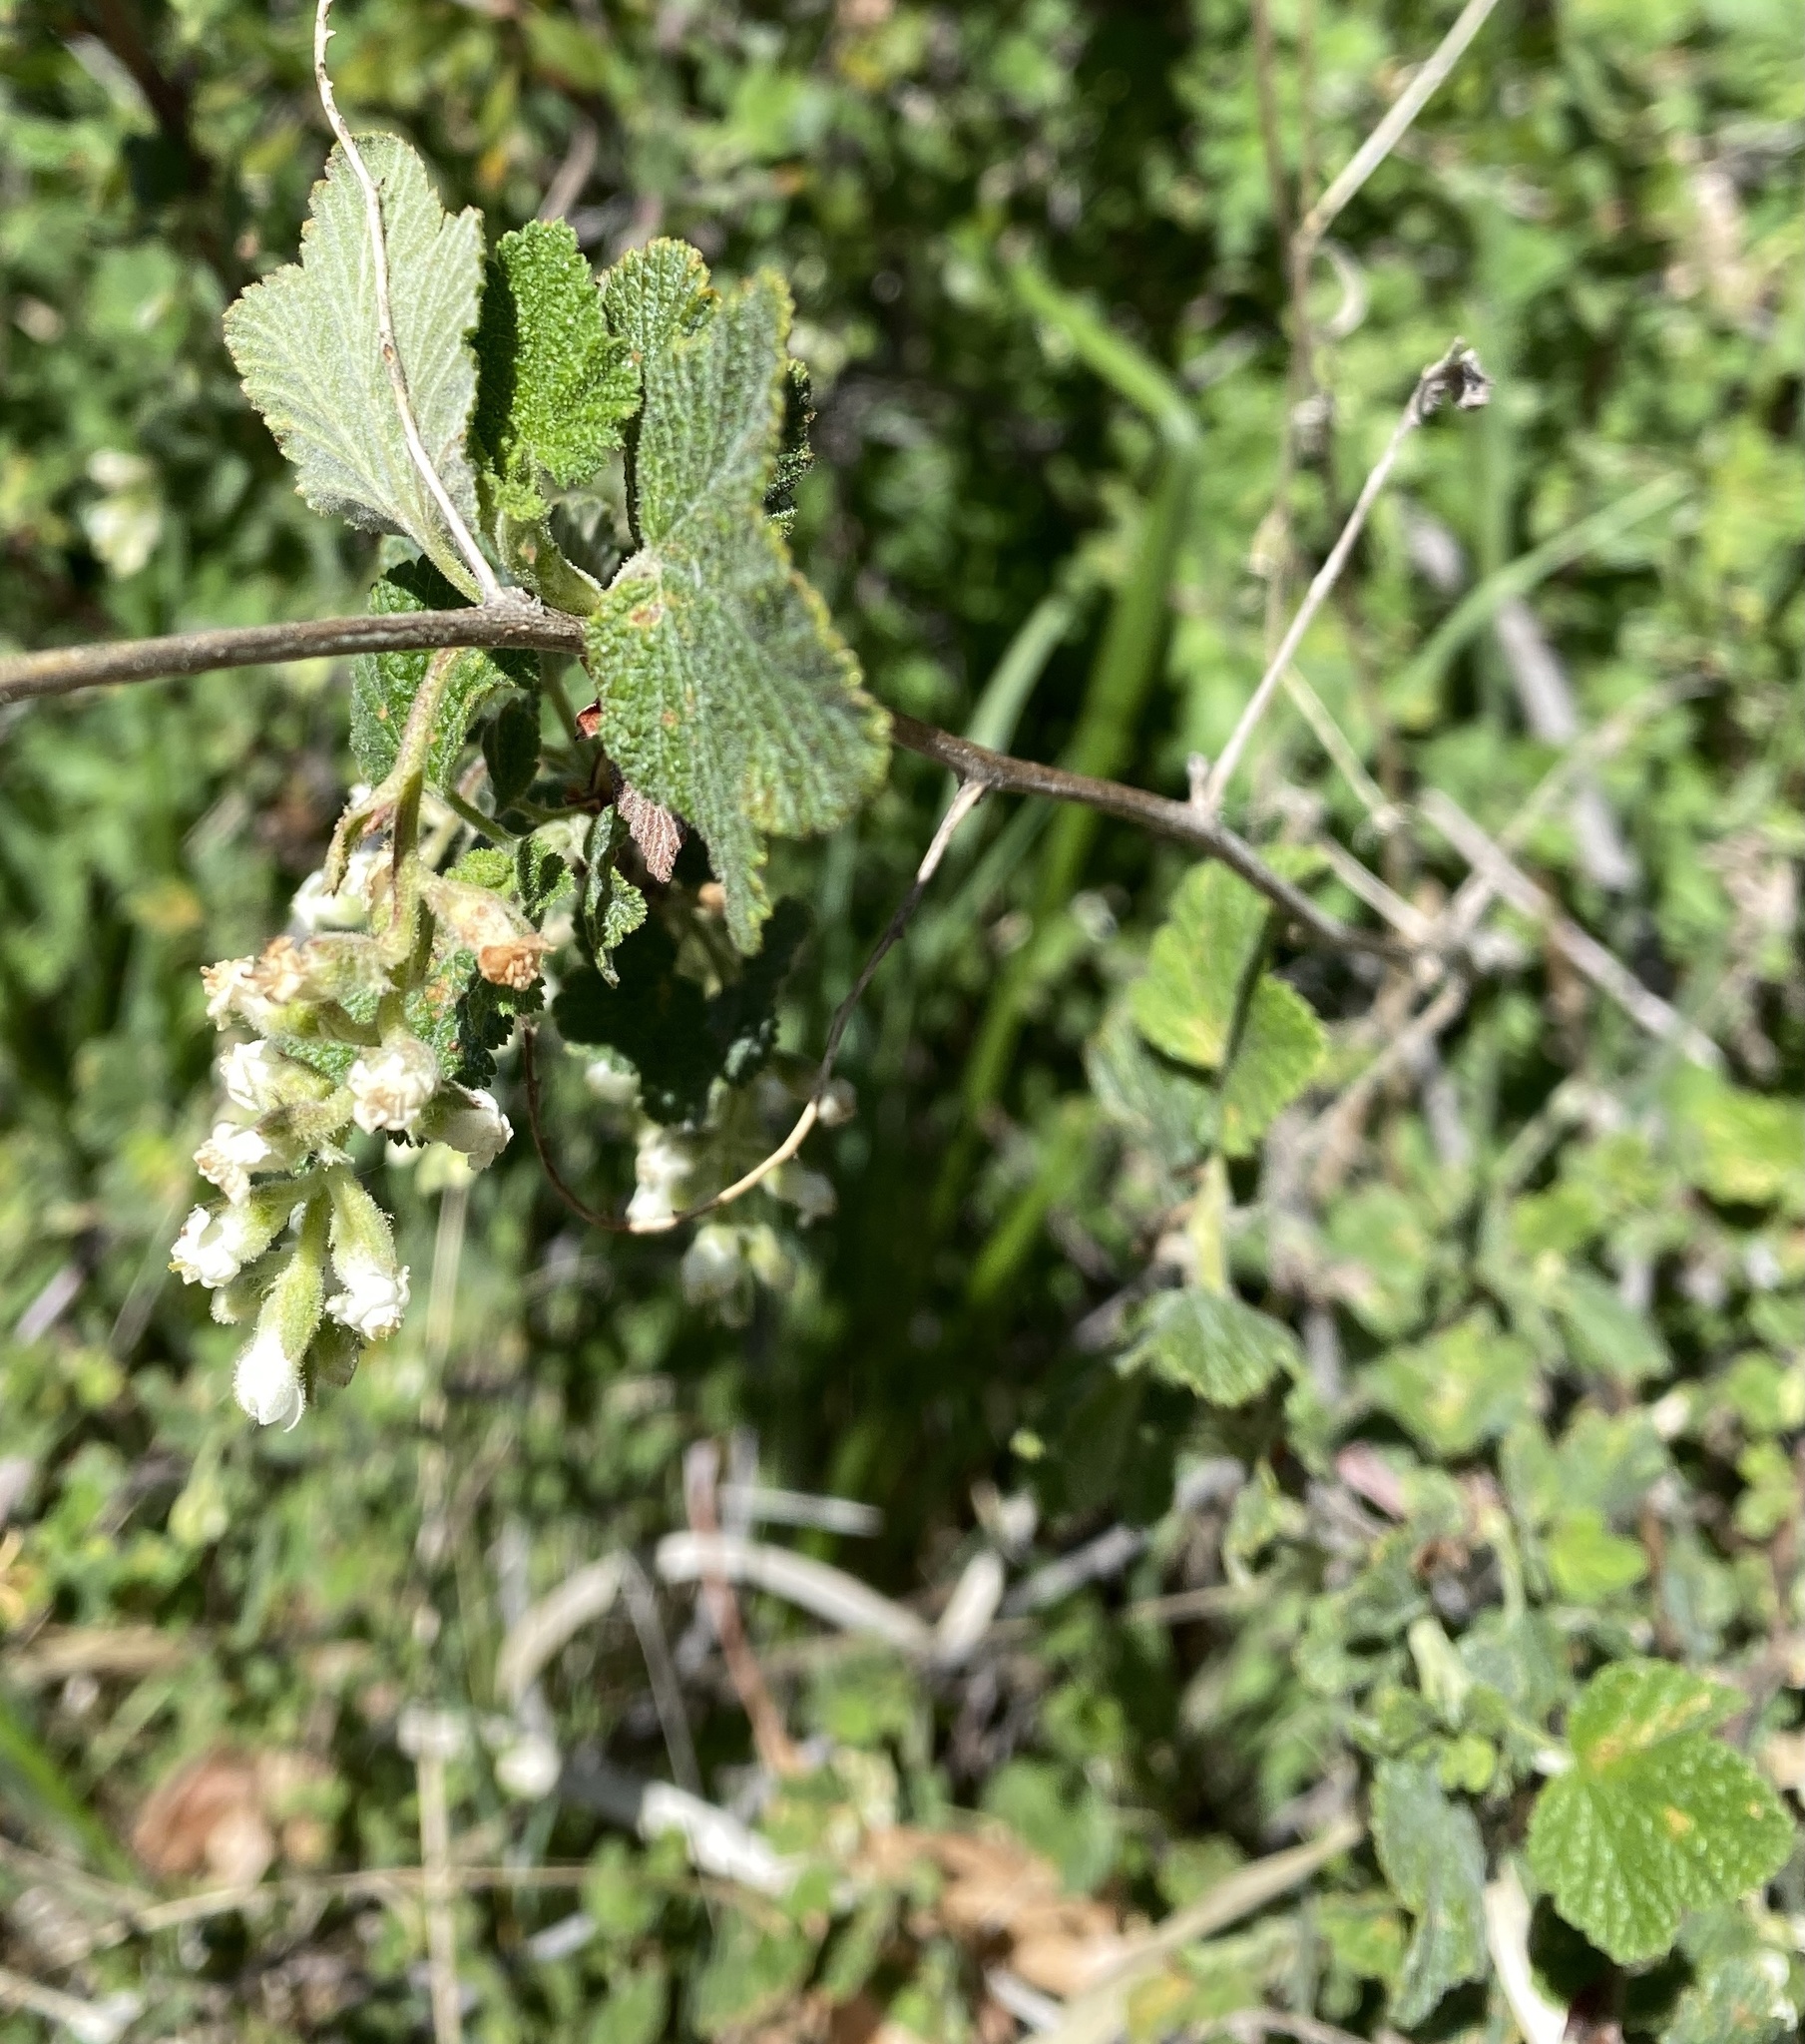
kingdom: Plantae
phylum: Tracheophyta
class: Magnoliopsida
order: Saxifragales
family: Grossulariaceae
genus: Ribes
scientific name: Ribes indecorum
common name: White-flower currant
